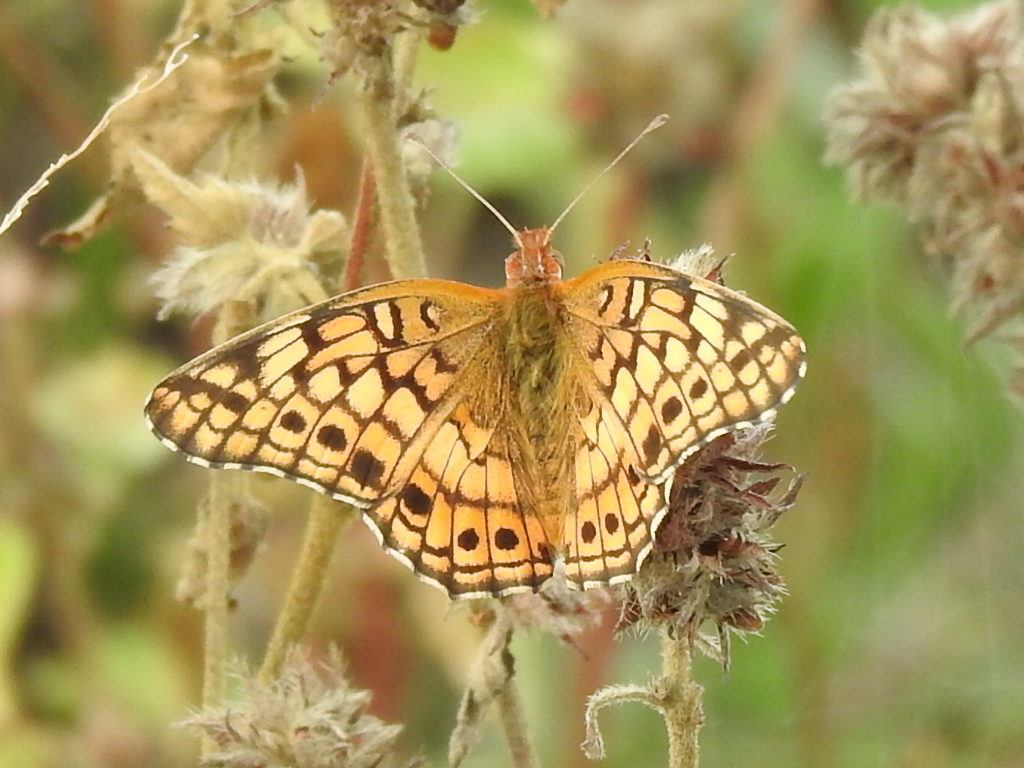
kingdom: Animalia
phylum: Arthropoda
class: Insecta
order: Lepidoptera
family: Nymphalidae
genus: Euptoieta
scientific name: Euptoieta claudia
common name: Variegated fritillary
